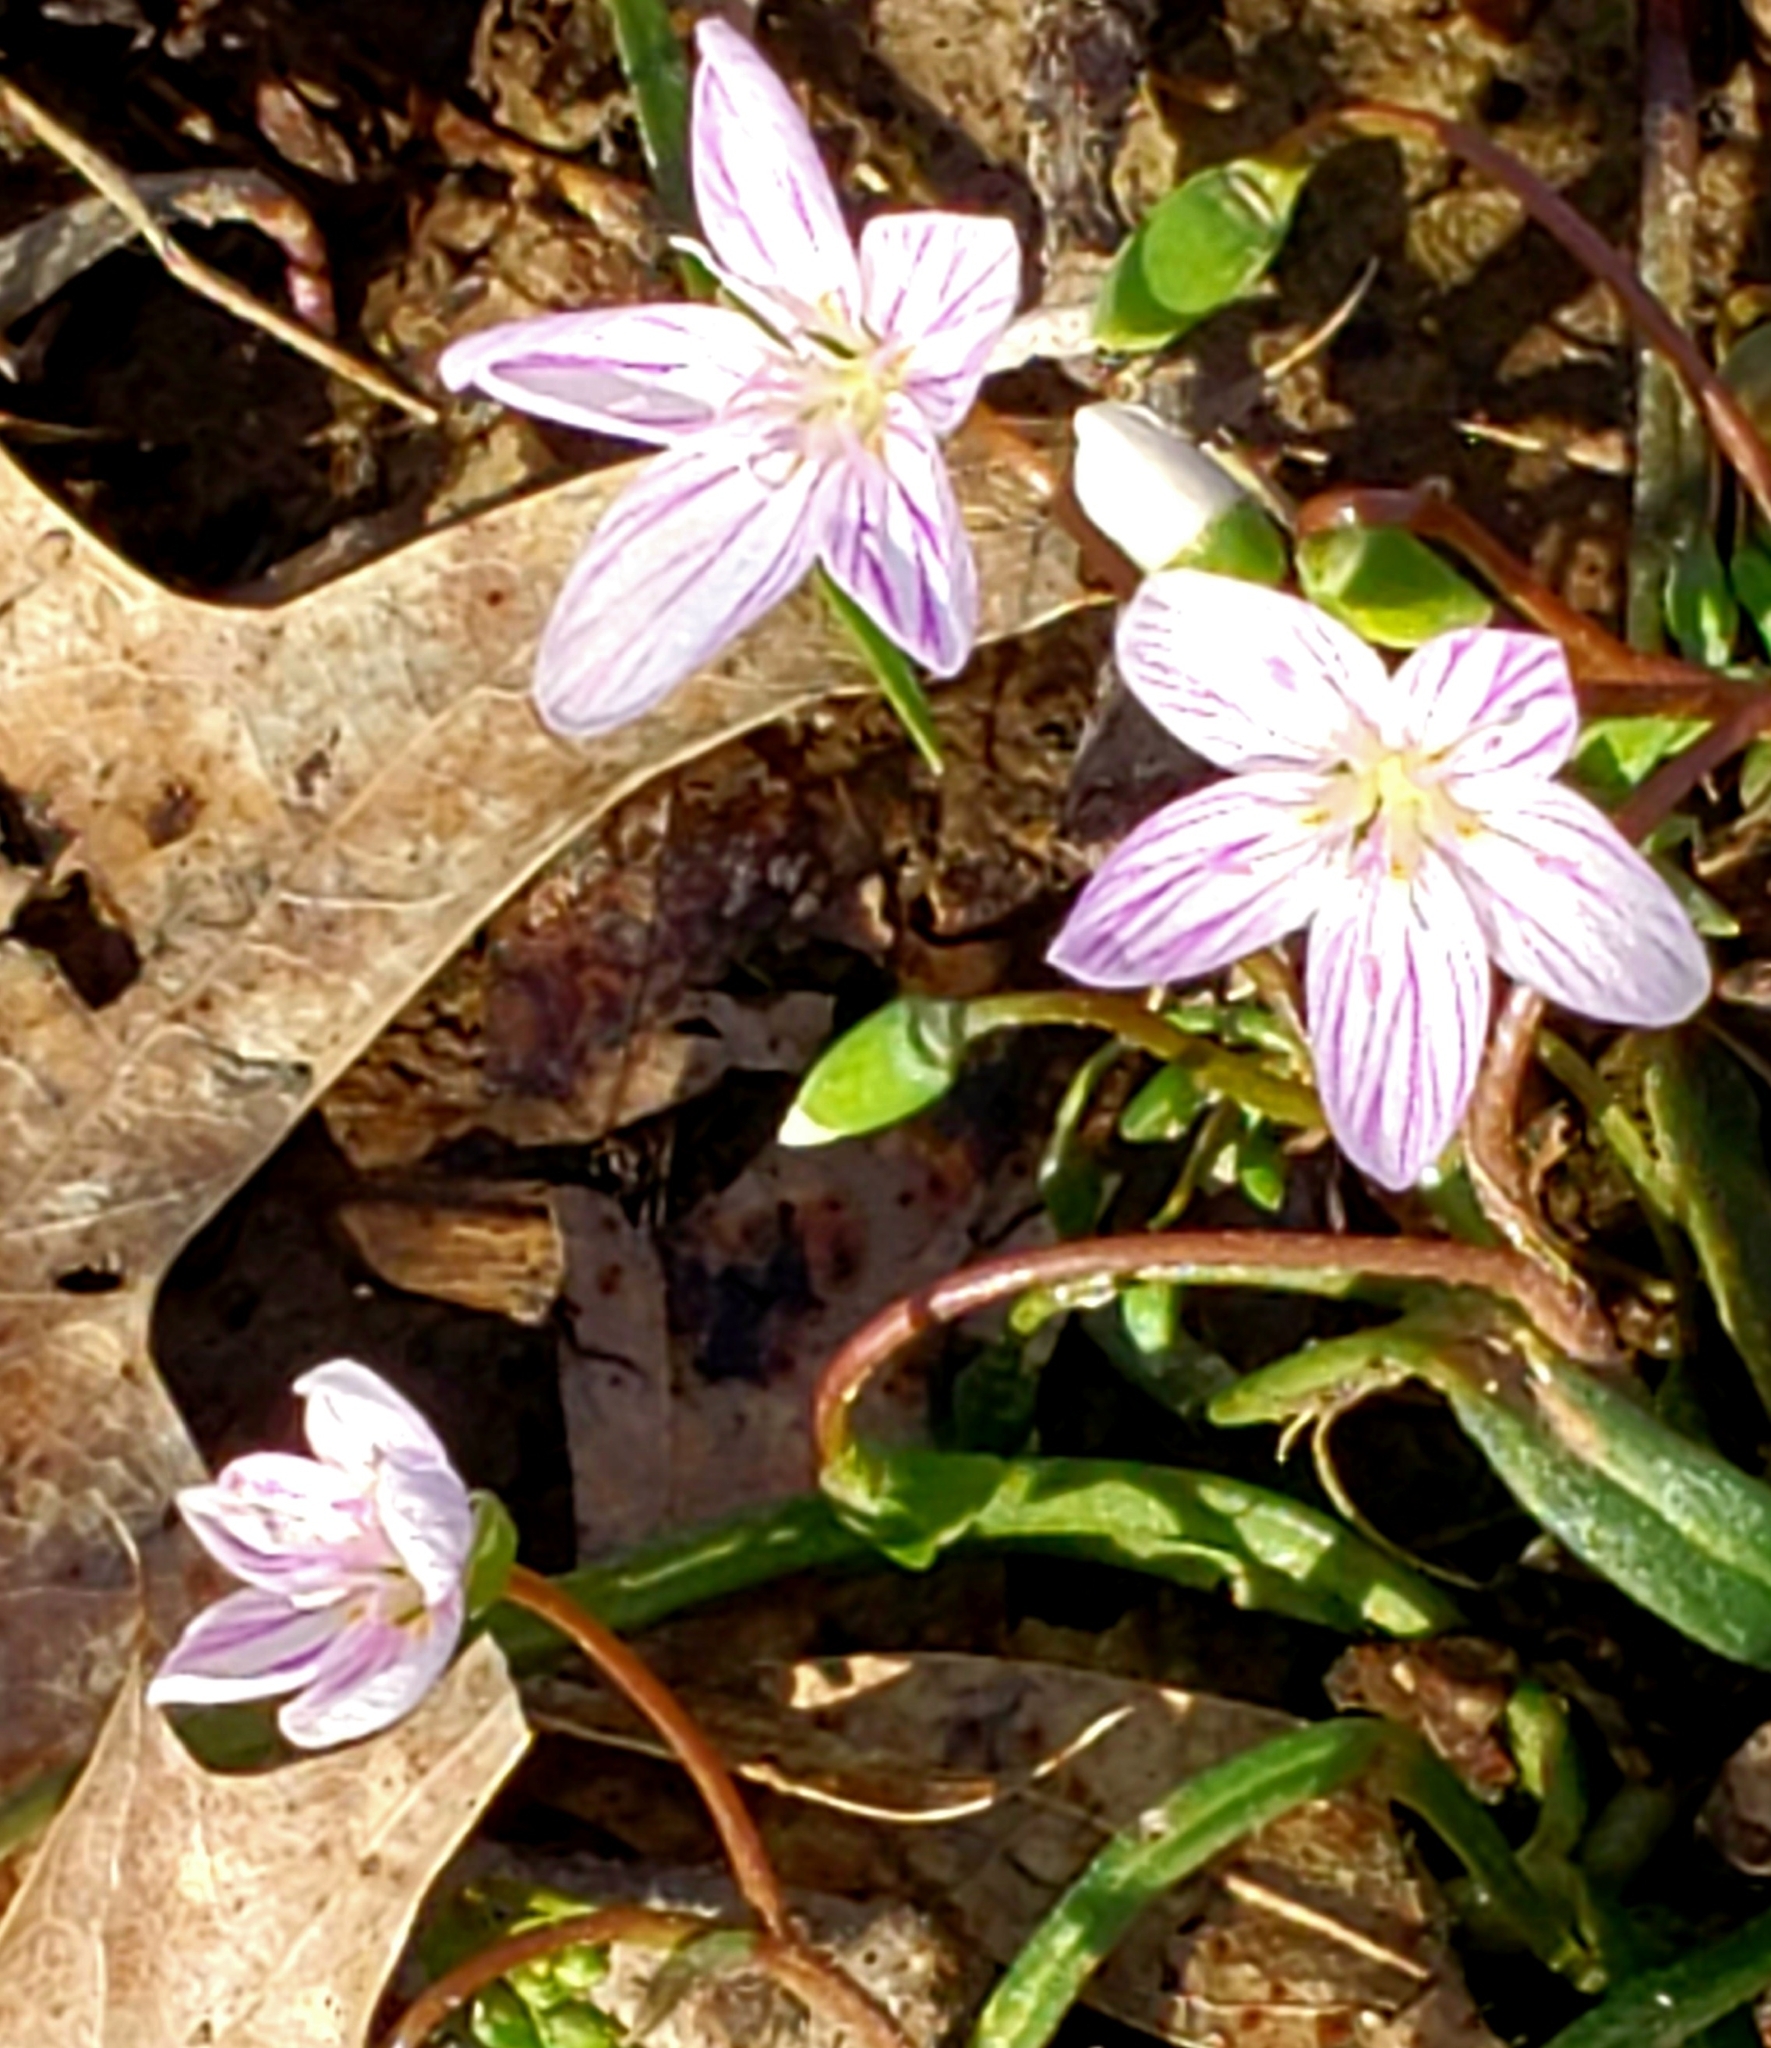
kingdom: Plantae
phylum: Tracheophyta
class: Magnoliopsida
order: Caryophyllales
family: Montiaceae
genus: Claytonia
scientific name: Claytonia virginica
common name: Virginia springbeauty
